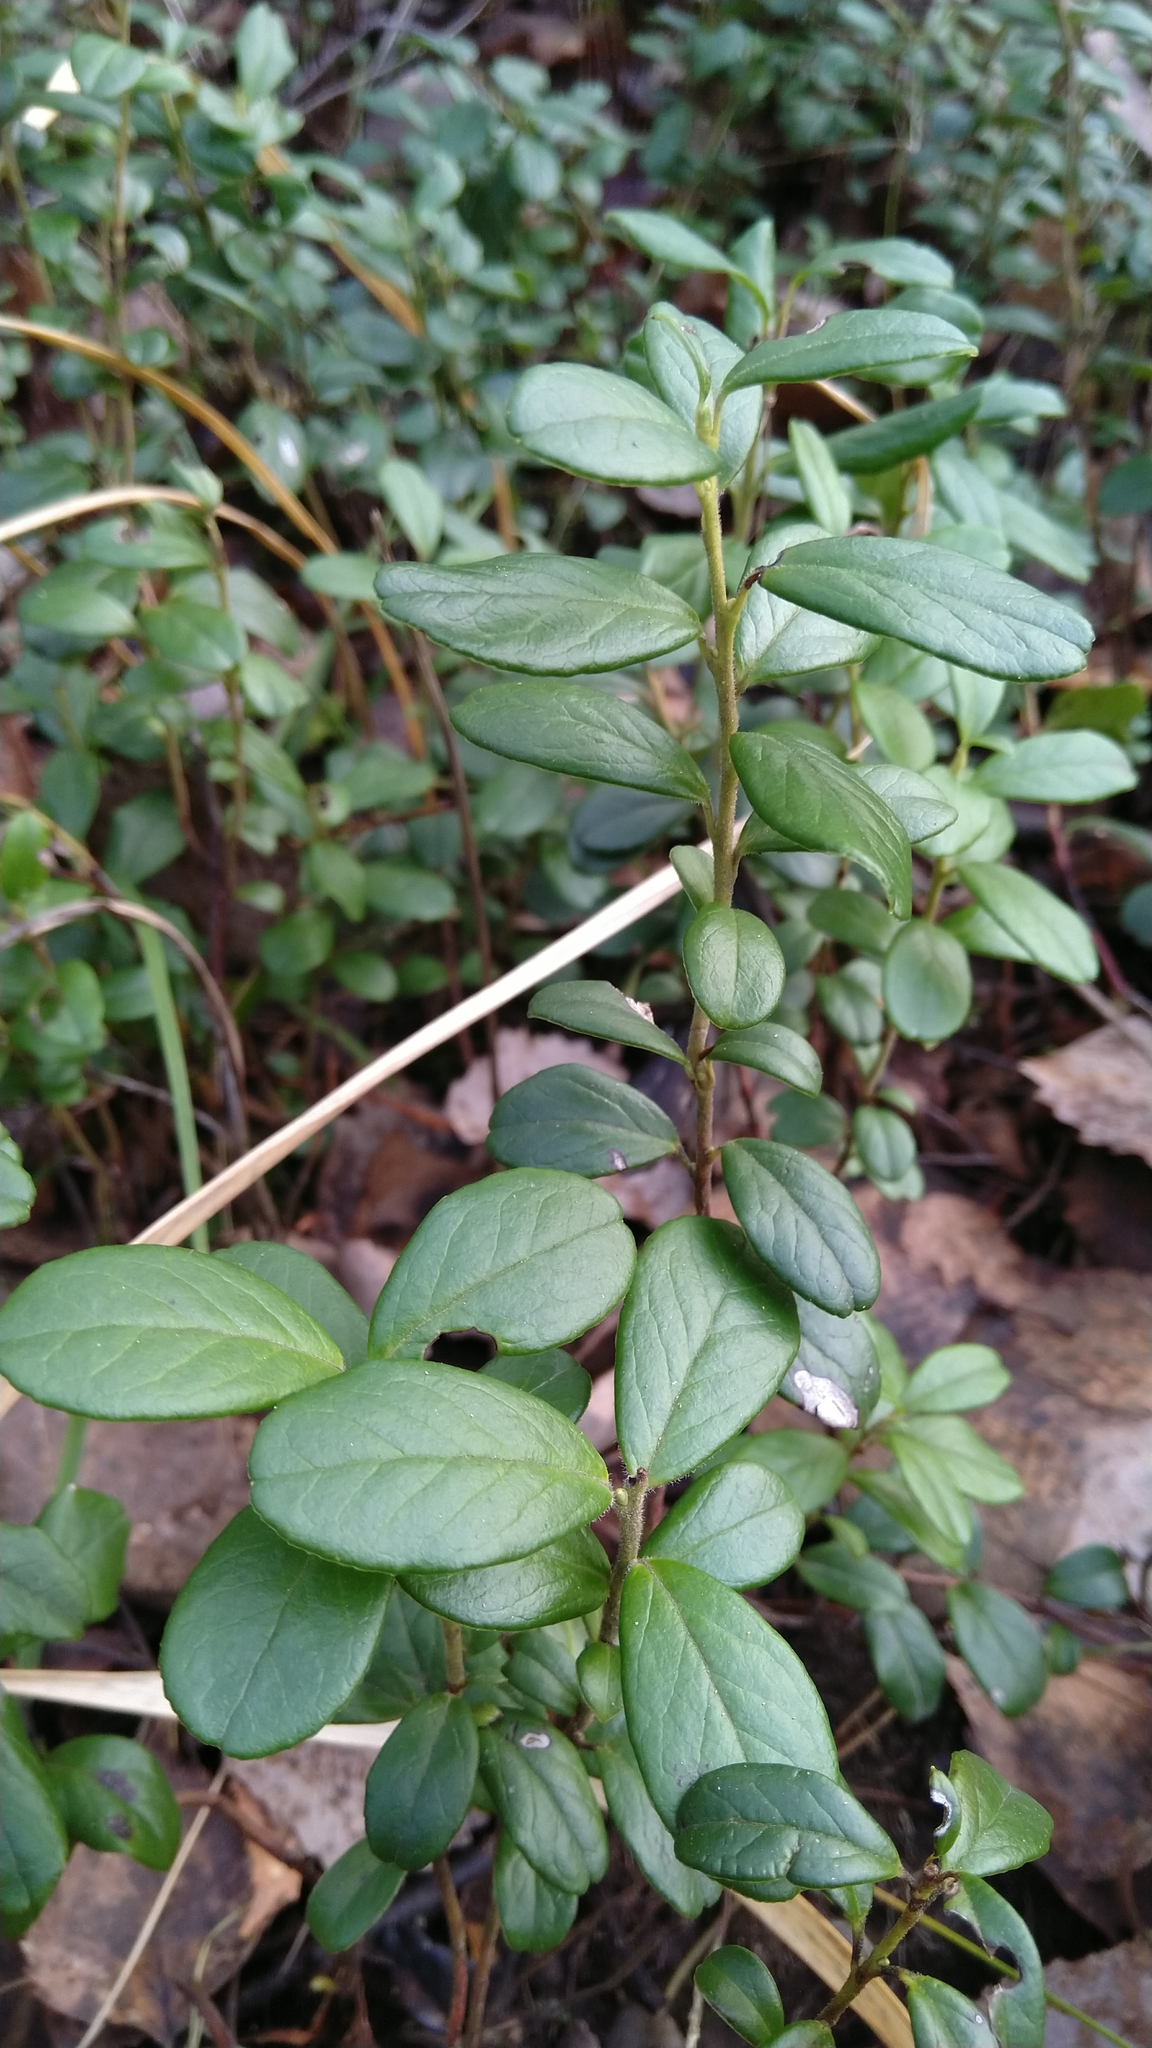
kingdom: Plantae
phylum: Tracheophyta
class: Magnoliopsida
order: Ericales
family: Ericaceae
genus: Vaccinium
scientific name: Vaccinium vitis-idaea
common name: Cowberry
